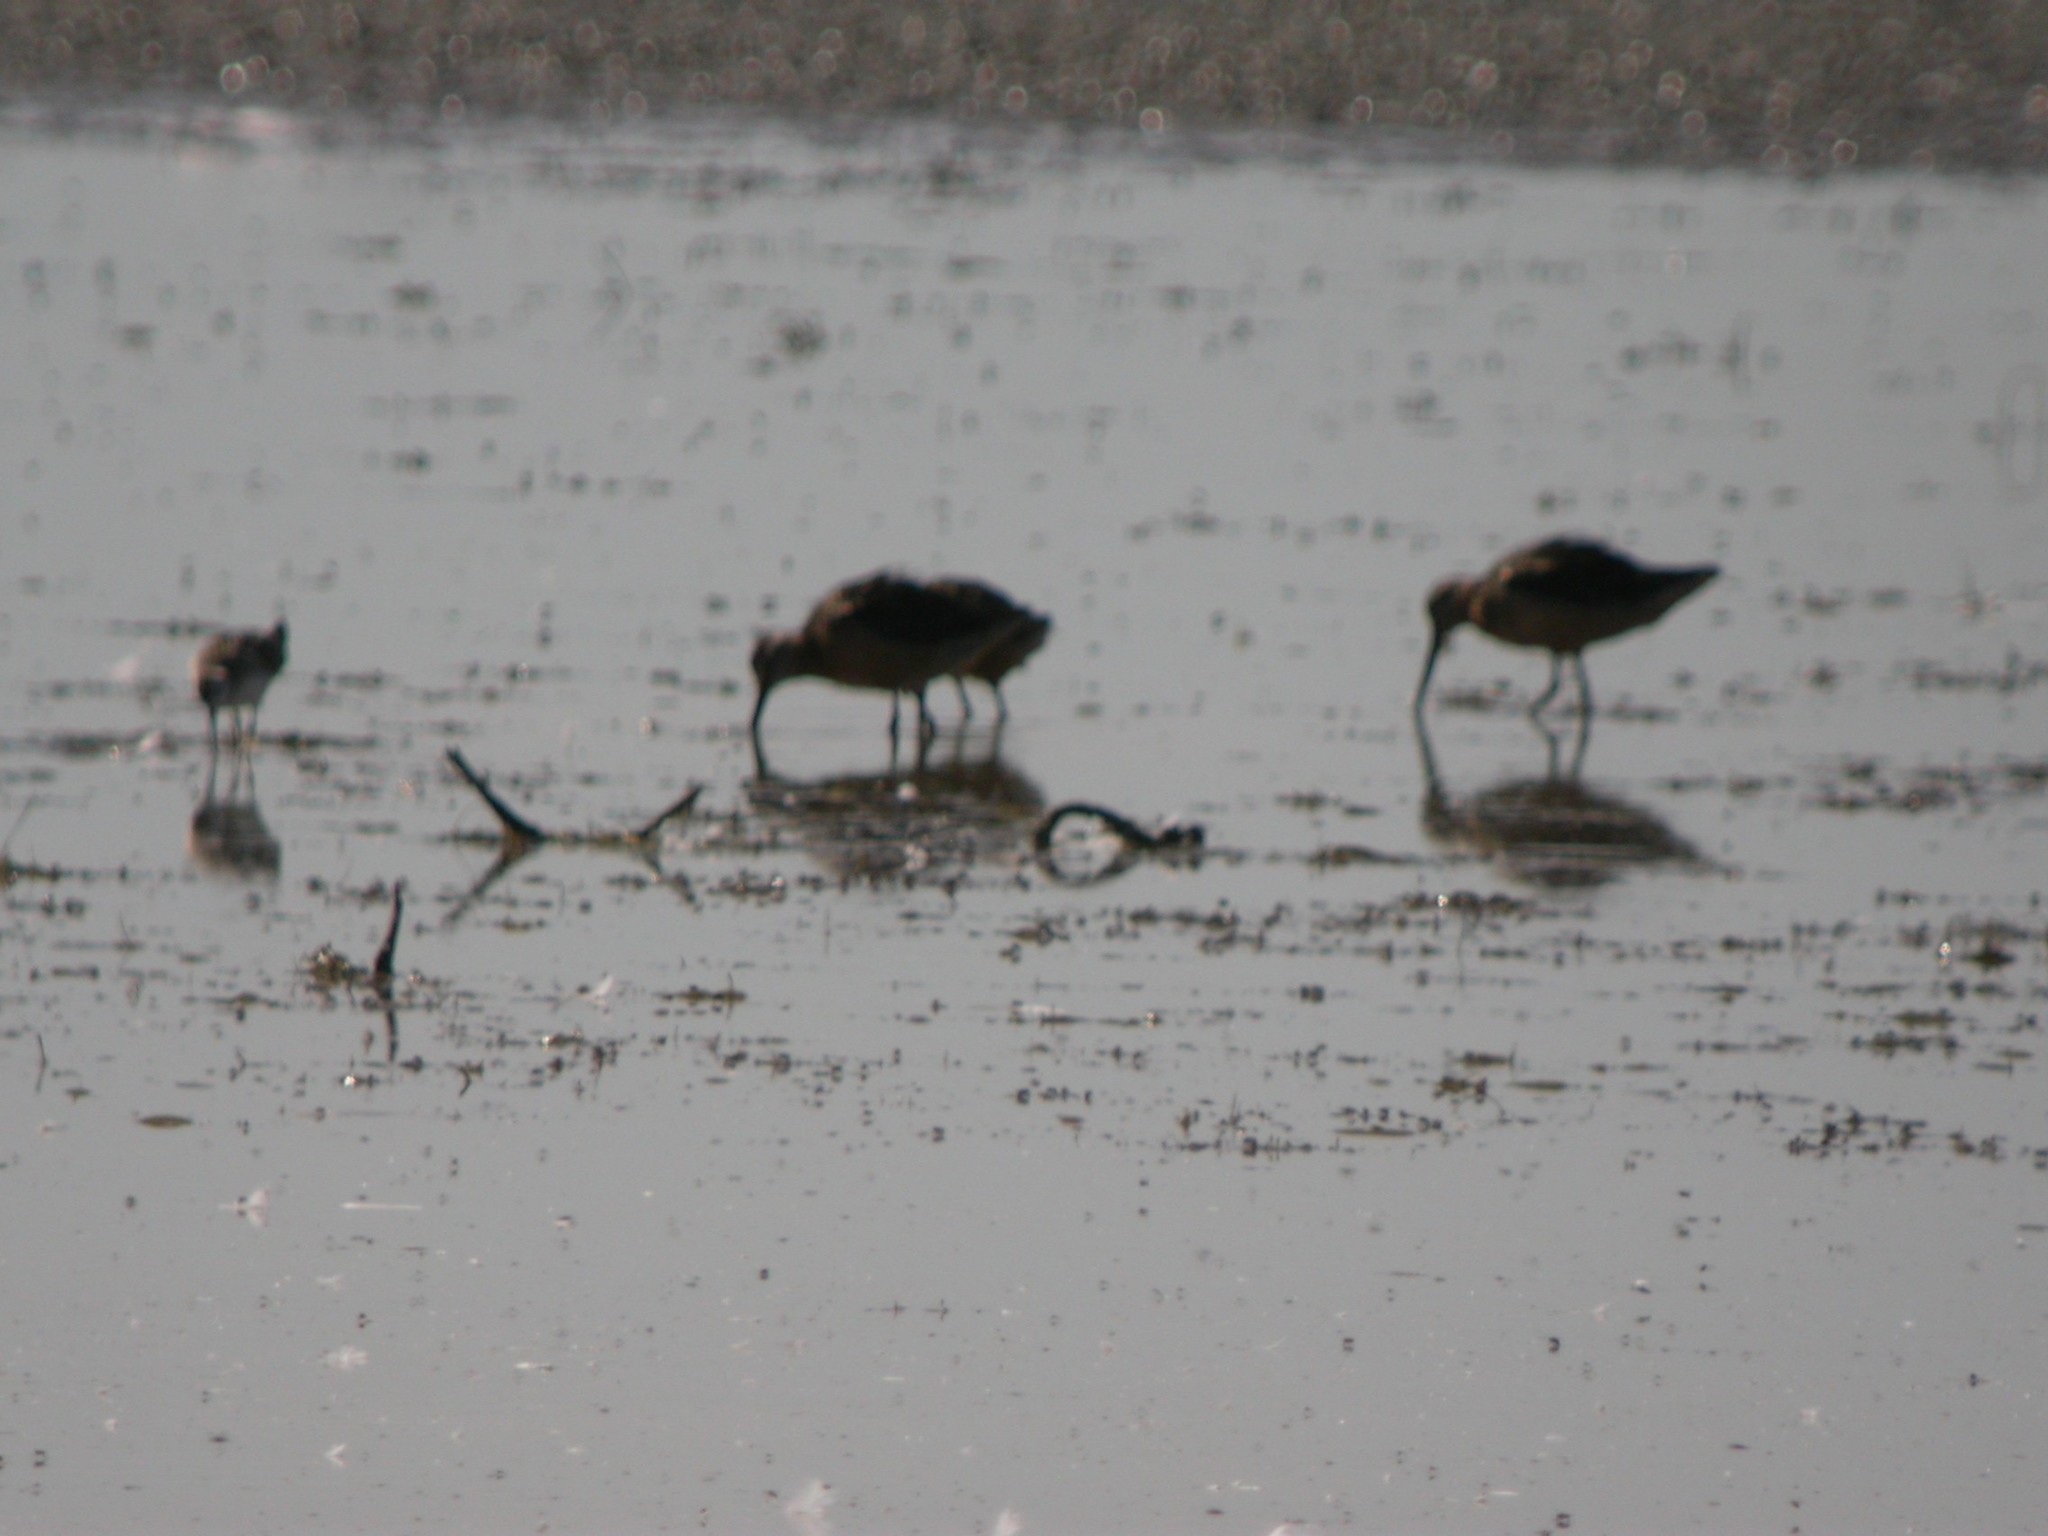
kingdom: Animalia
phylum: Chordata
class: Aves
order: Charadriiformes
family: Scolopacidae
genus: Limnodromus
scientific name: Limnodromus scolopaceus
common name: Long-billed dowitcher
